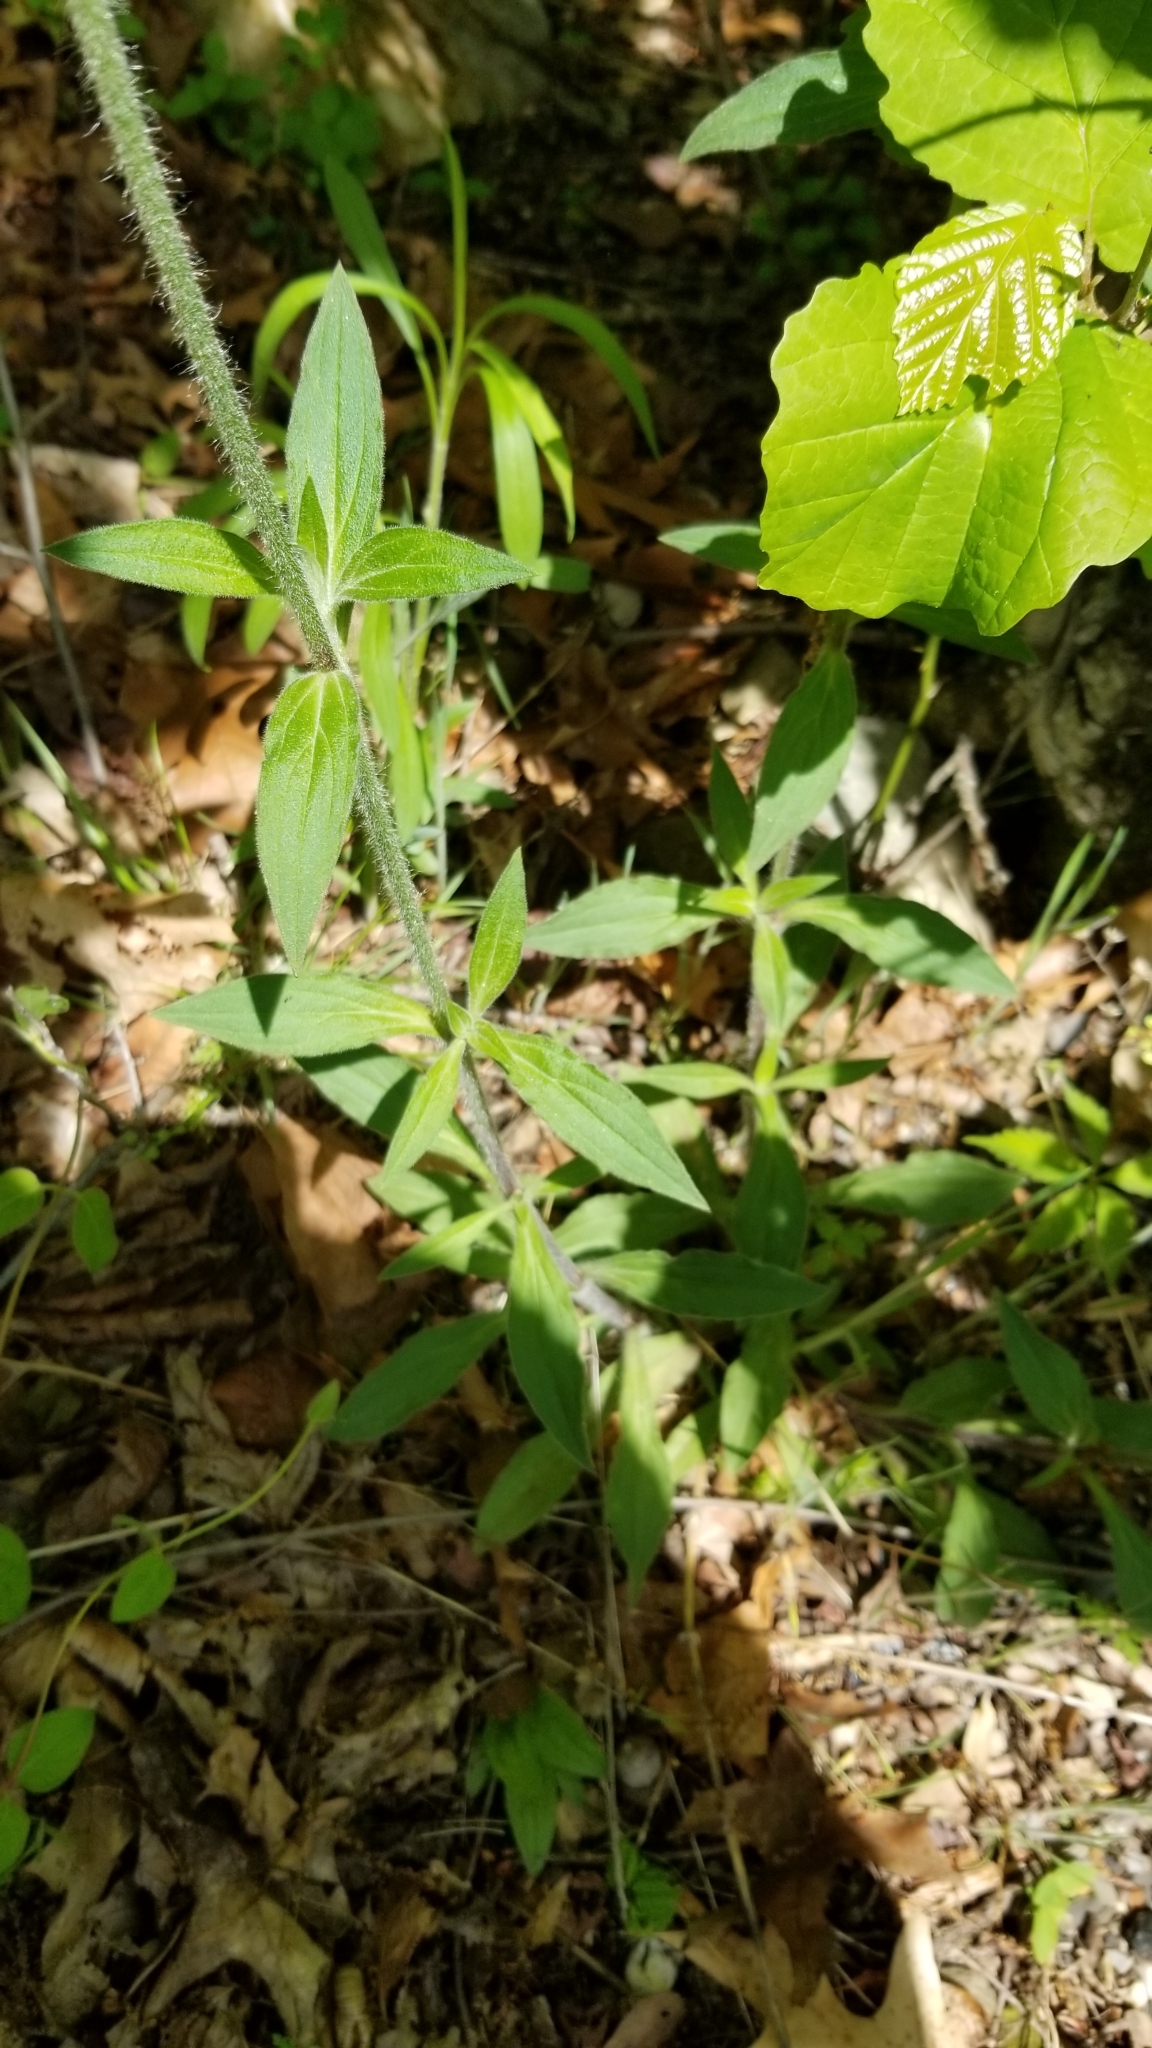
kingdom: Plantae
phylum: Tracheophyta
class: Magnoliopsida
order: Caryophyllales
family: Caryophyllaceae
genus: Silene
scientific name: Silene latifolia
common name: White campion
